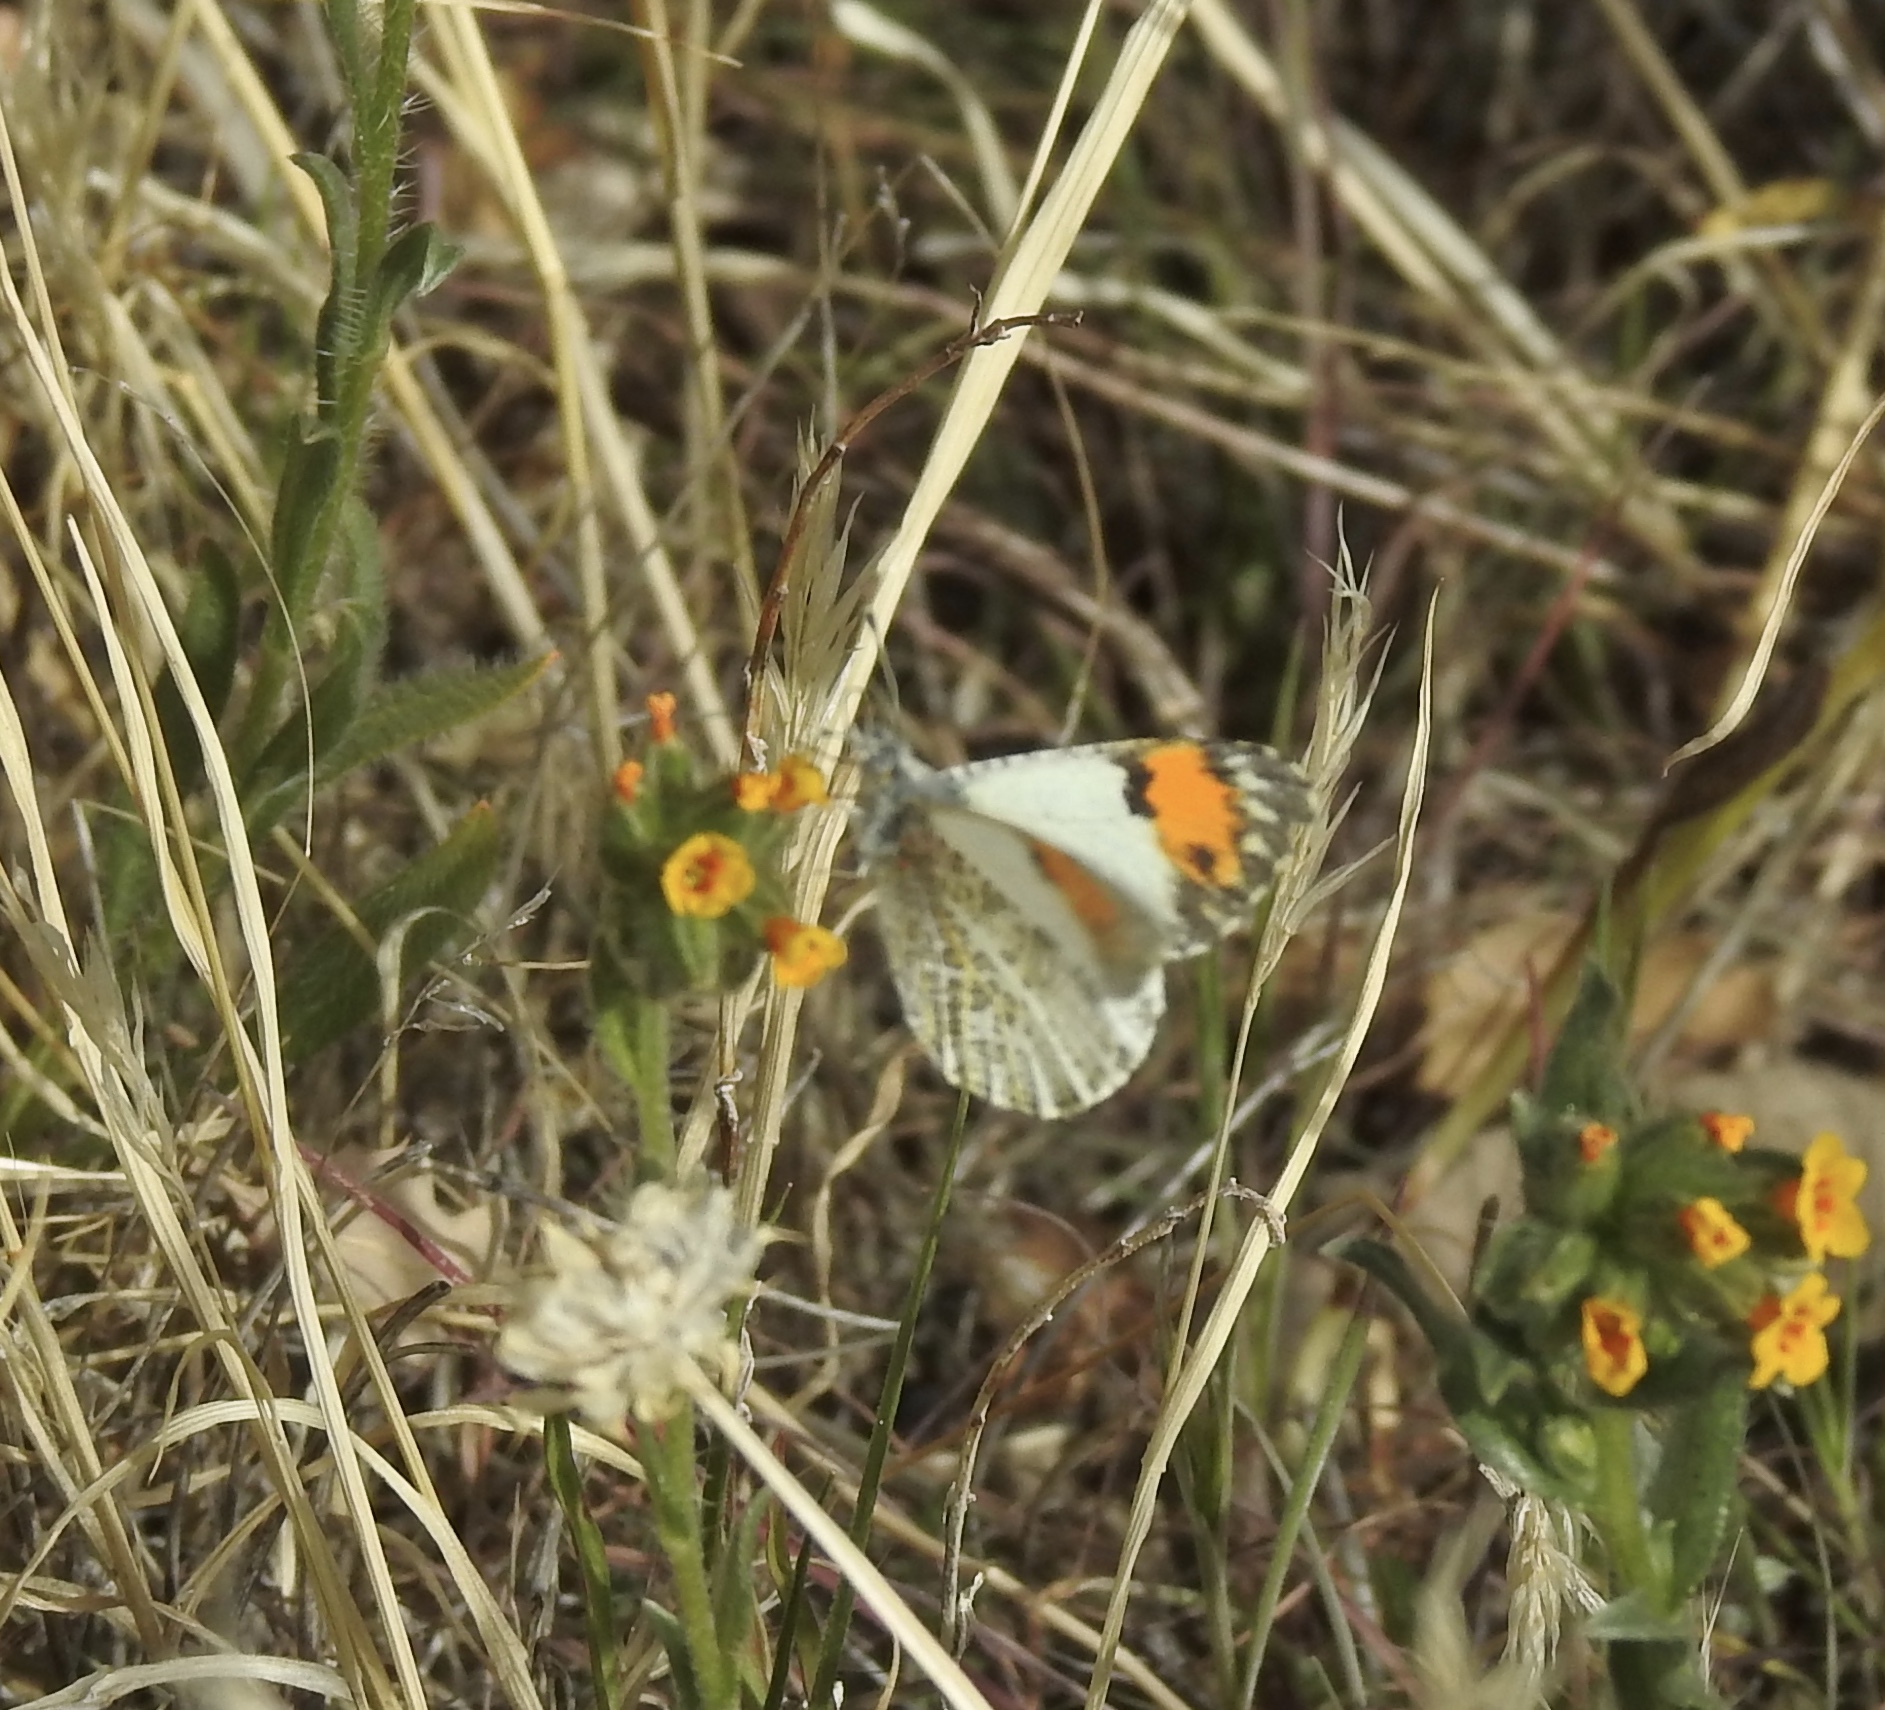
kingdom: Animalia
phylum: Arthropoda
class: Insecta
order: Lepidoptera
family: Pieridae
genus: Anthocharis
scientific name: Anthocharis sara
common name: Sara's orangetip
